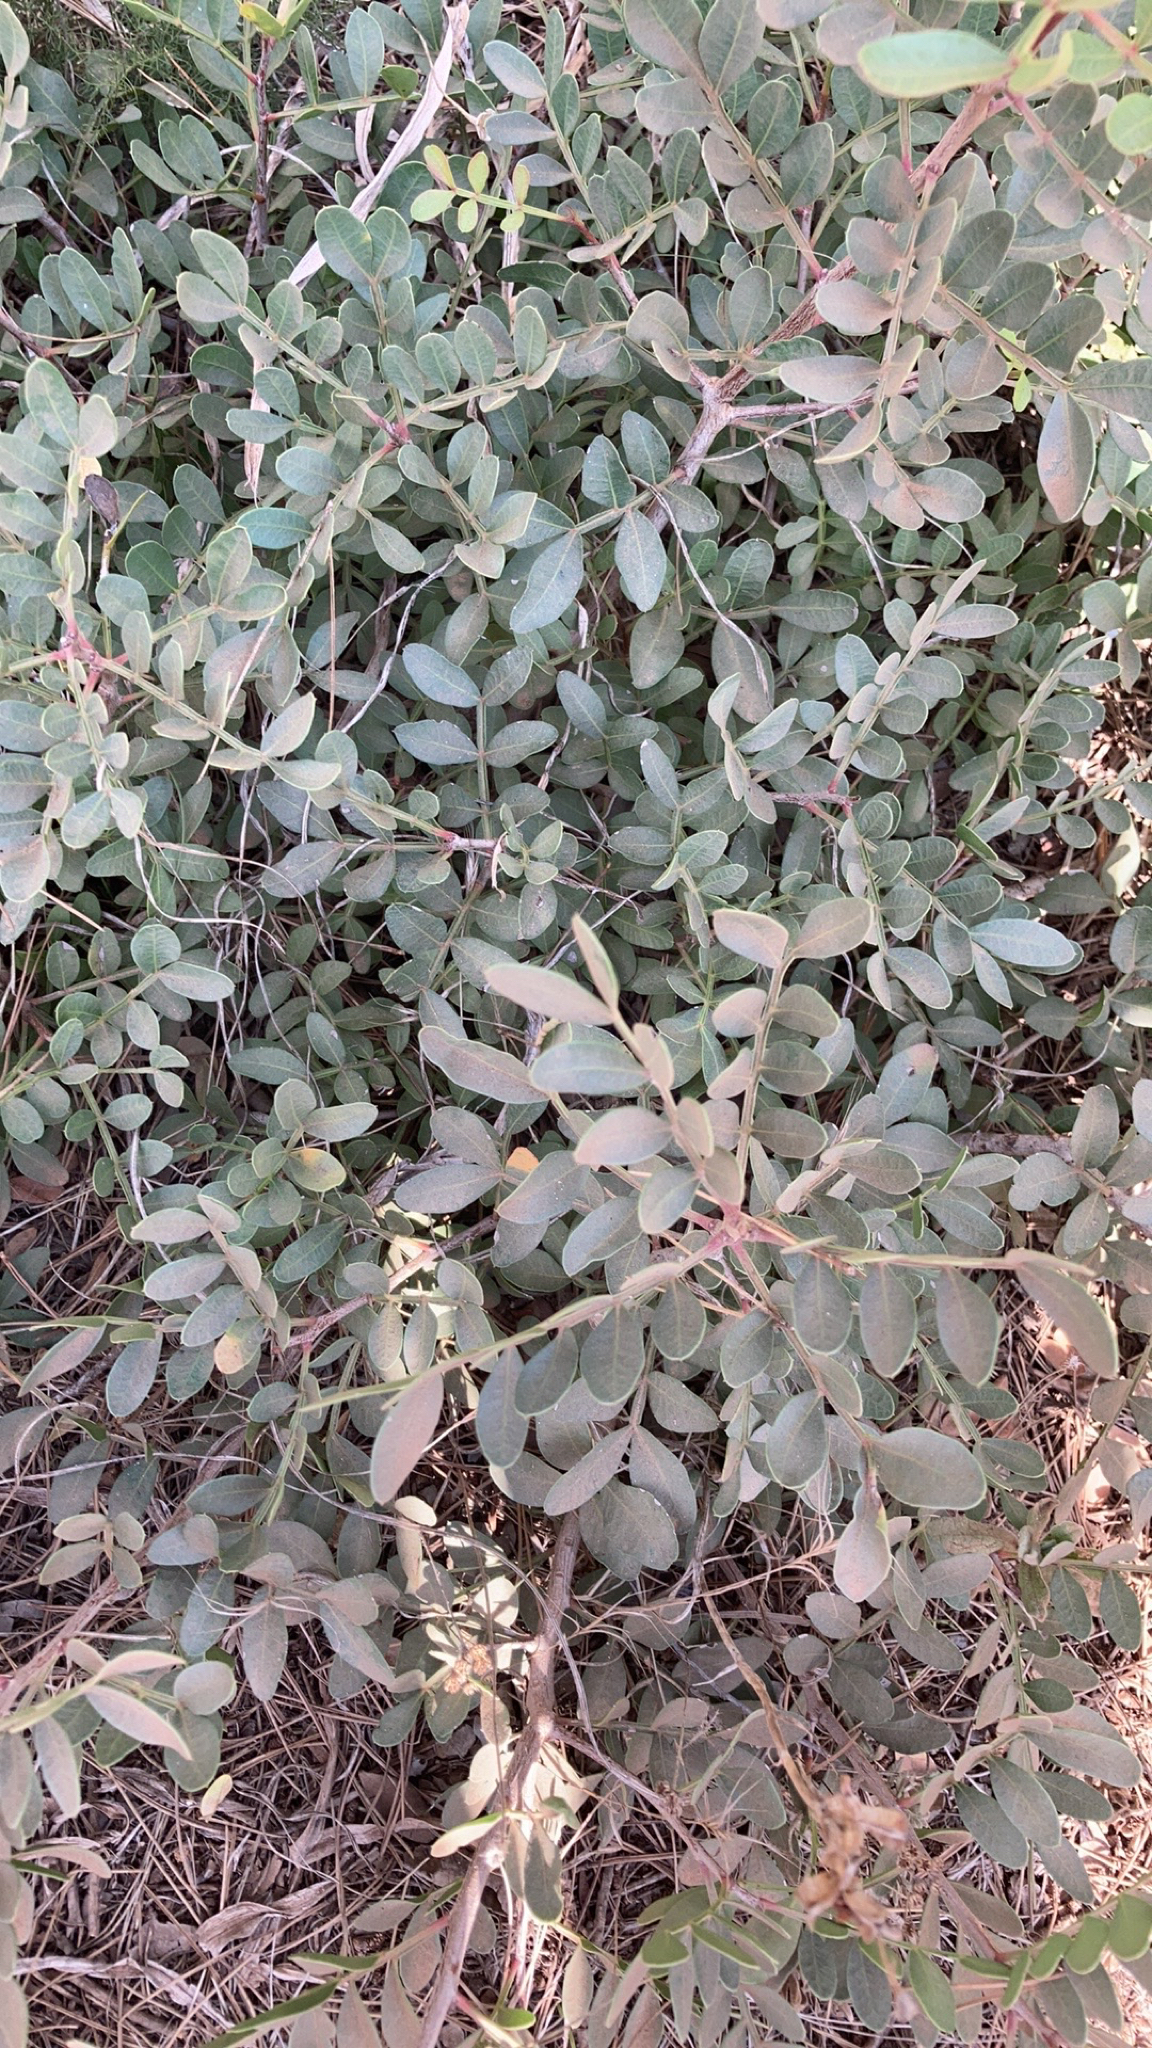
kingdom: Plantae
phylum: Tracheophyta
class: Magnoliopsida
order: Sapindales
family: Anacardiaceae
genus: Pistacia
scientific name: Pistacia lentiscus
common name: Lentisk
